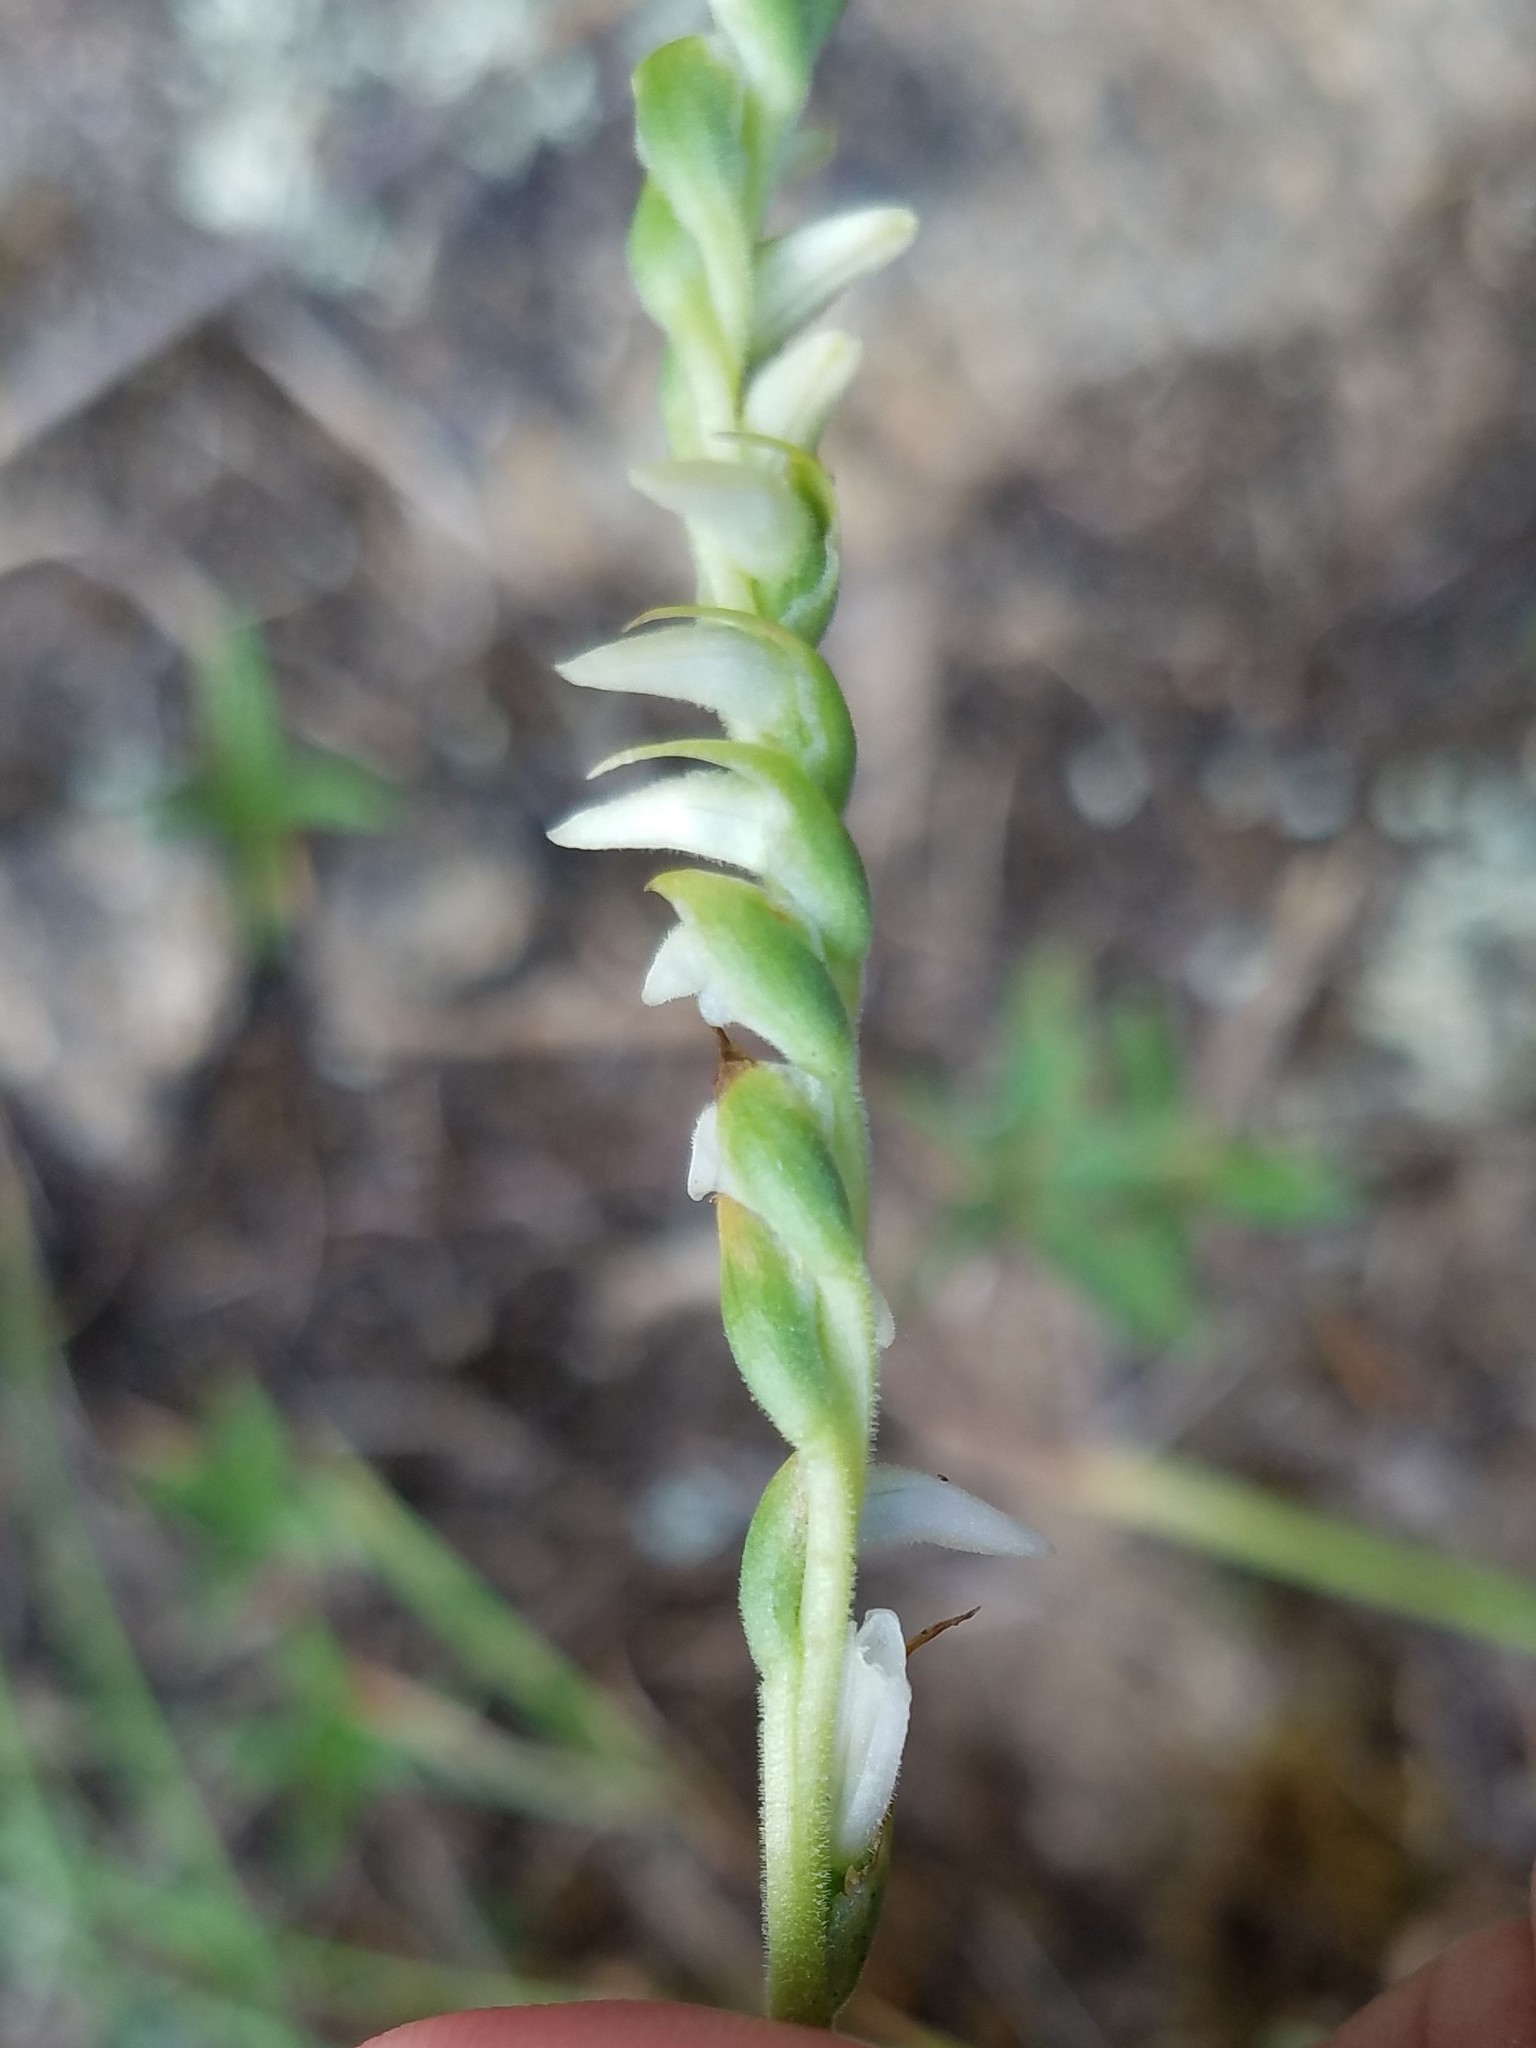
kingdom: Plantae
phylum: Tracheophyta
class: Liliopsida
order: Asparagales
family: Orchidaceae
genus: Spiranthes
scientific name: Spiranthes vernalis
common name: Spring ladies'-tresses
